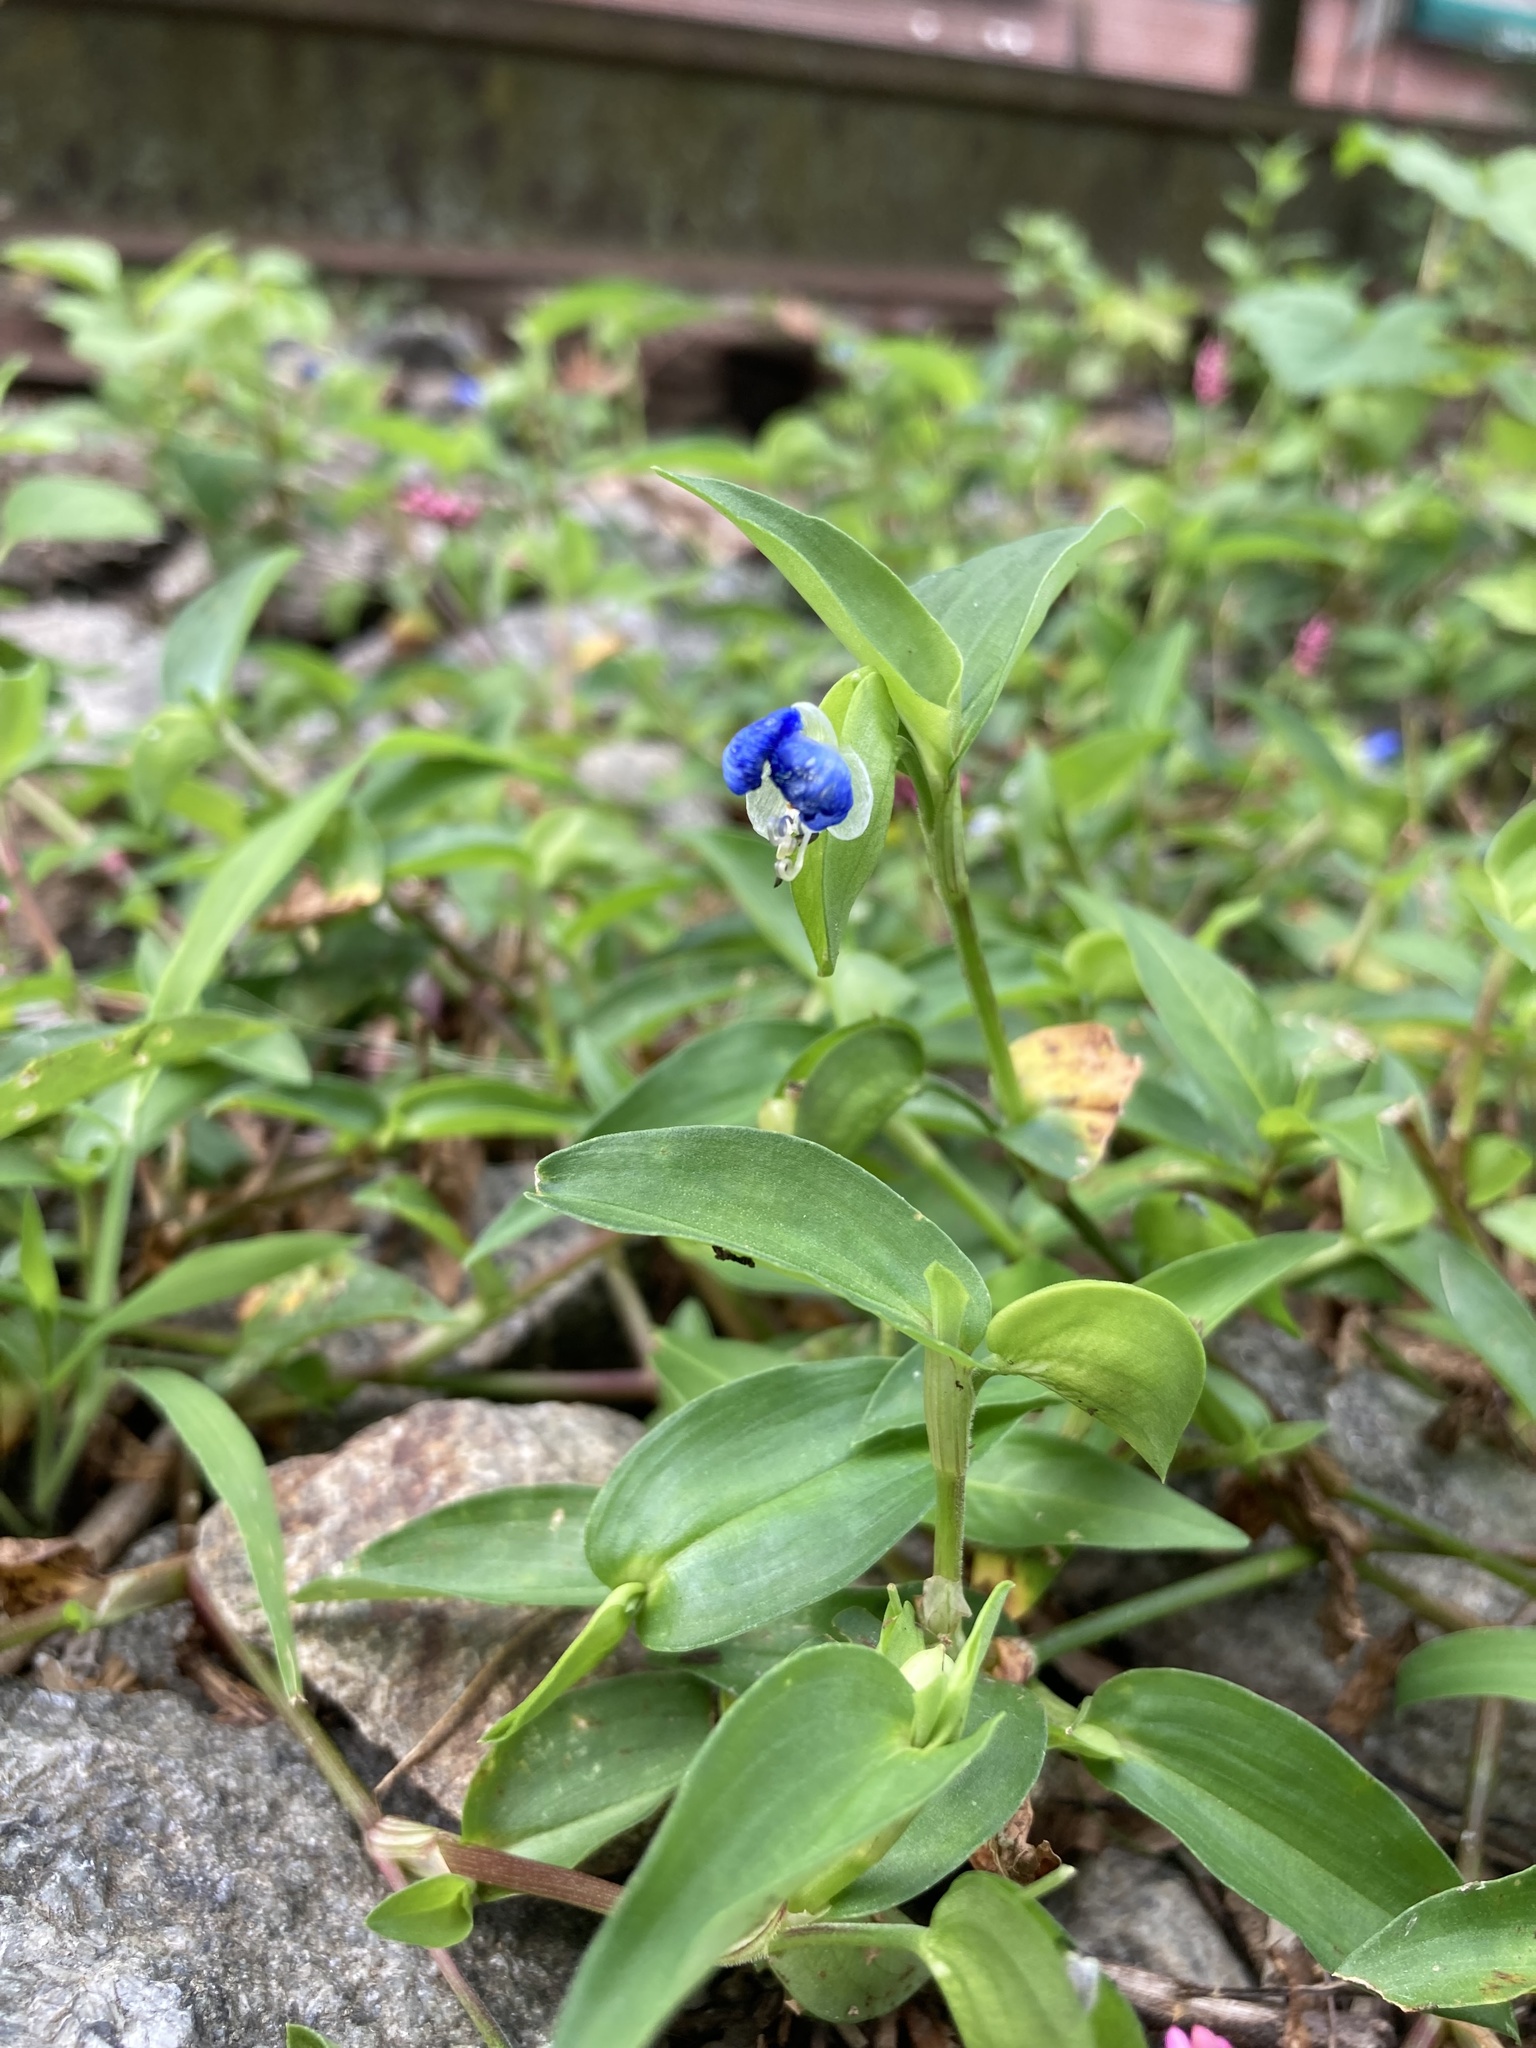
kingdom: Plantae
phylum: Tracheophyta
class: Liliopsida
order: Commelinales
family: Commelinaceae
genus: Commelina
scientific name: Commelina communis
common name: Asiatic dayflower
